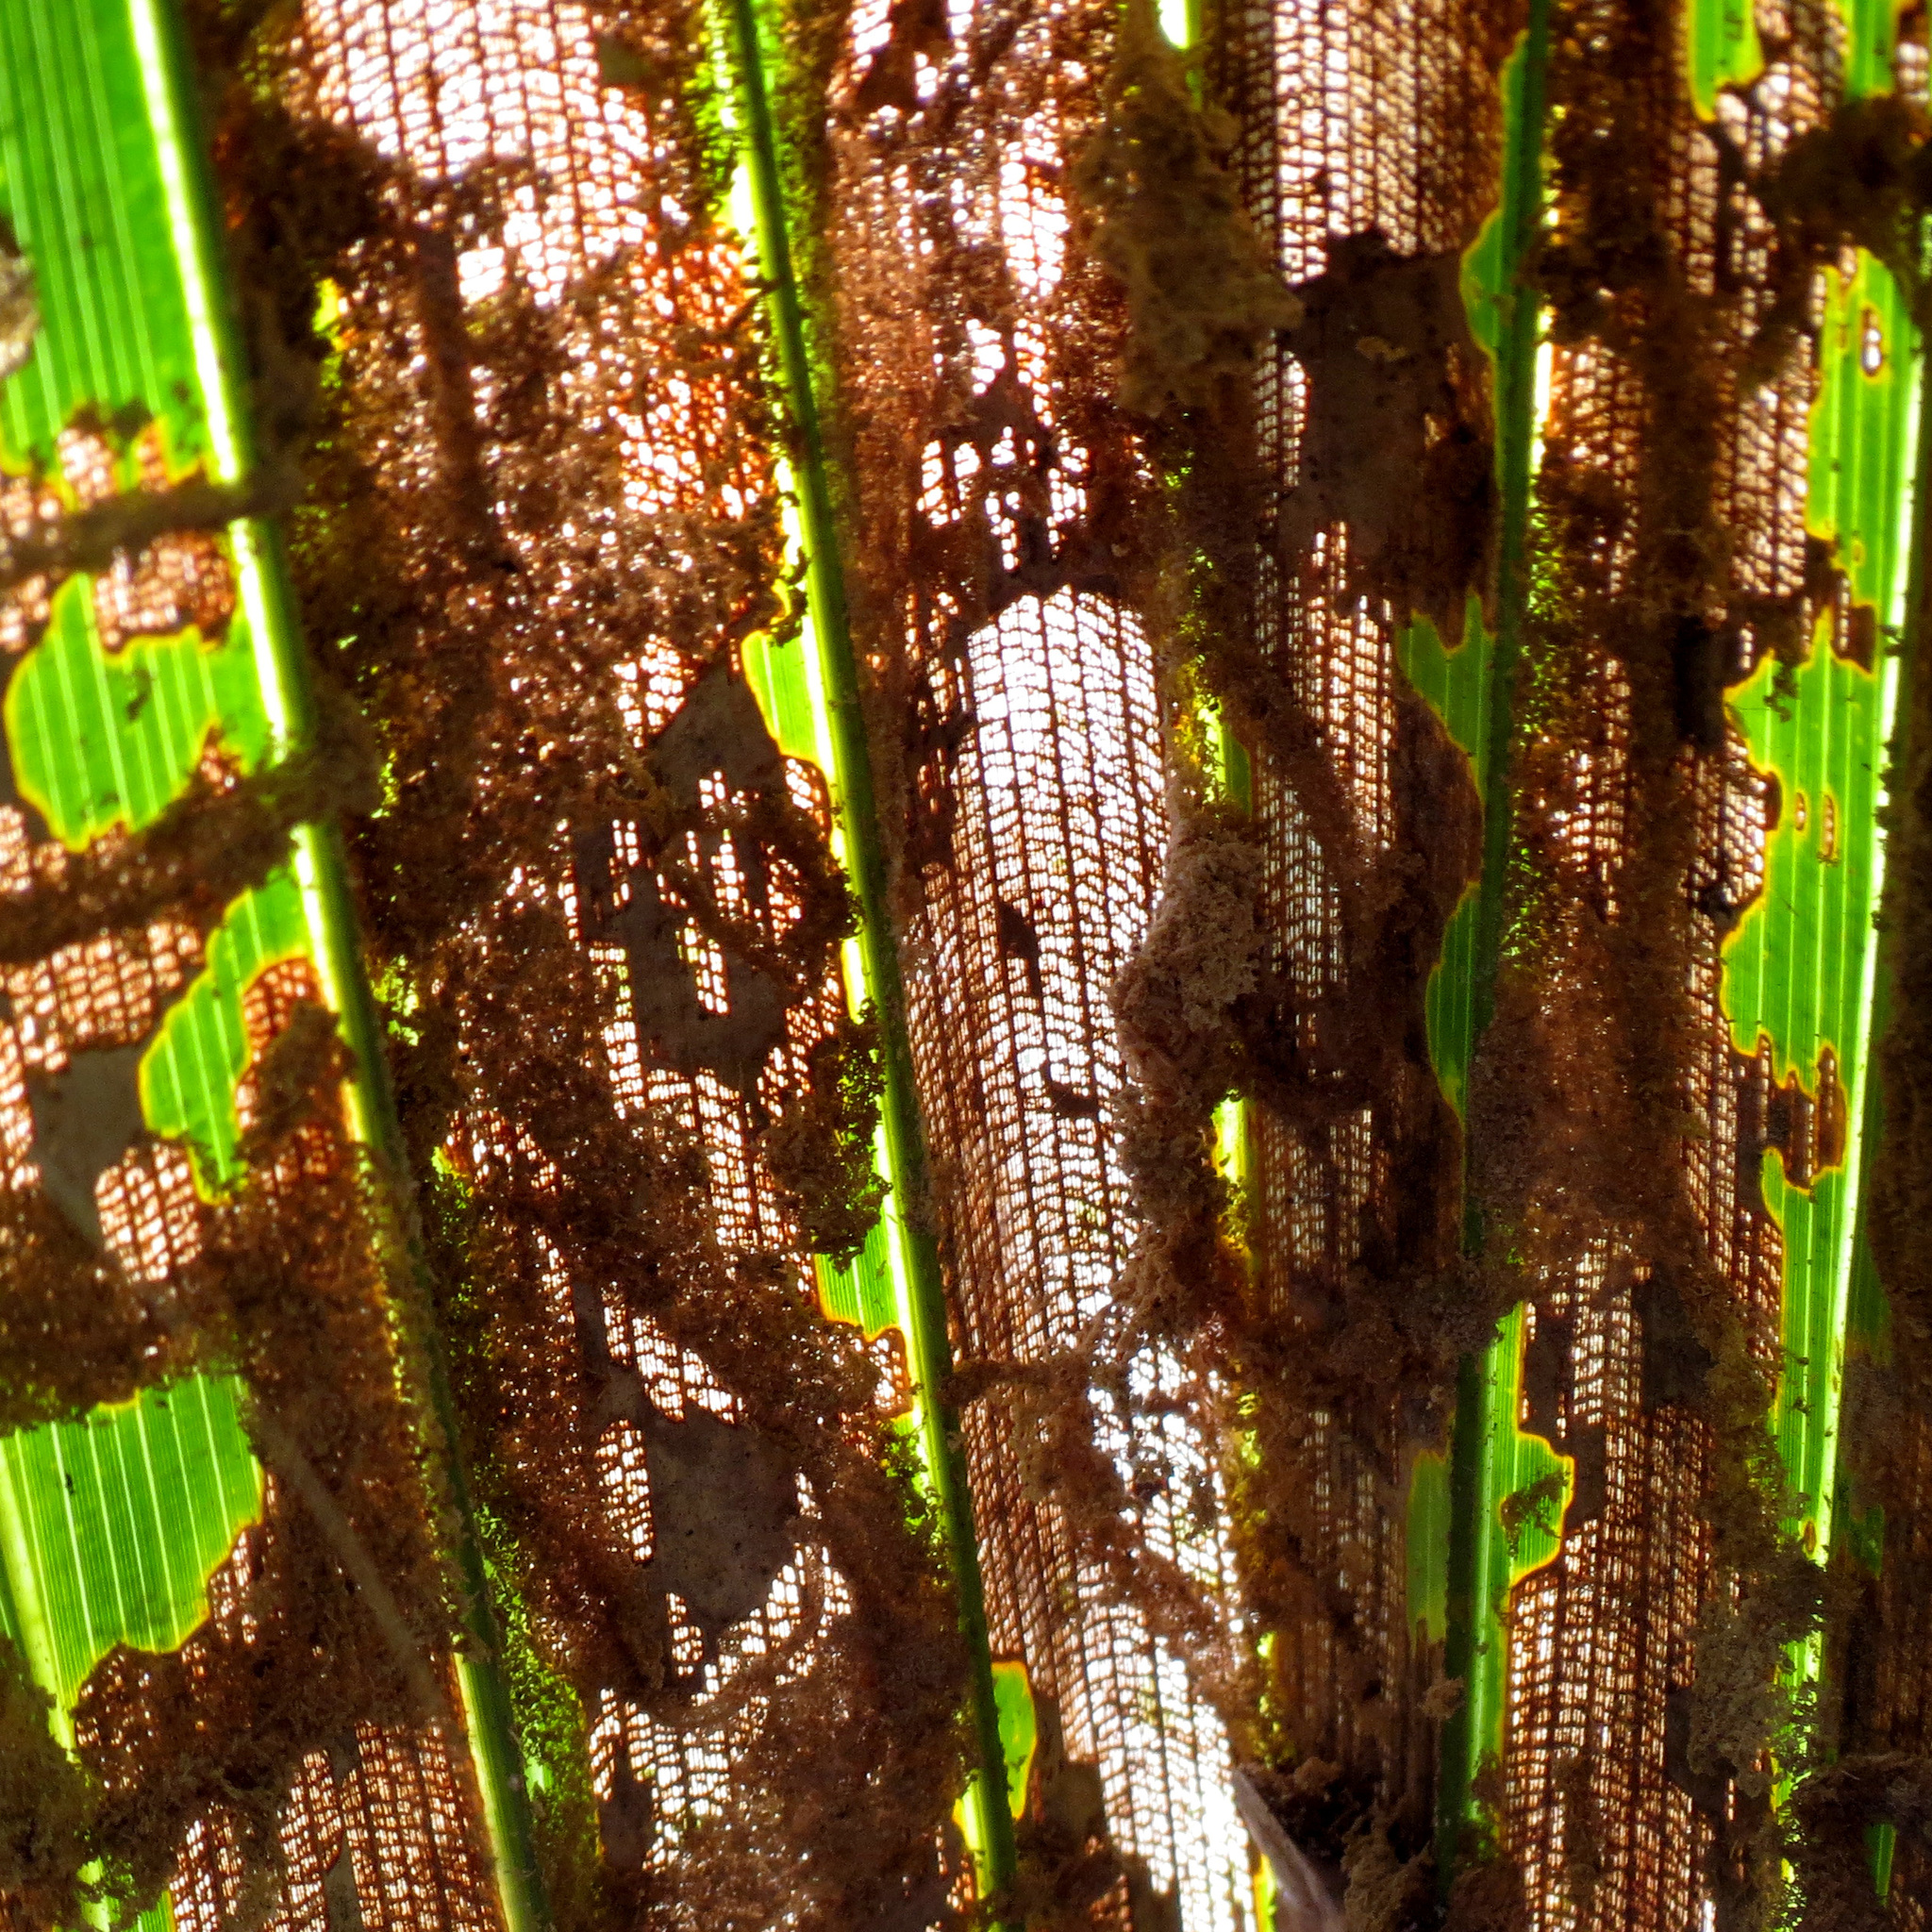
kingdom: Animalia
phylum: Arthropoda
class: Insecta
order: Lepidoptera
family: Coleophoridae
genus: Homaledra
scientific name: Homaledra sabalella
